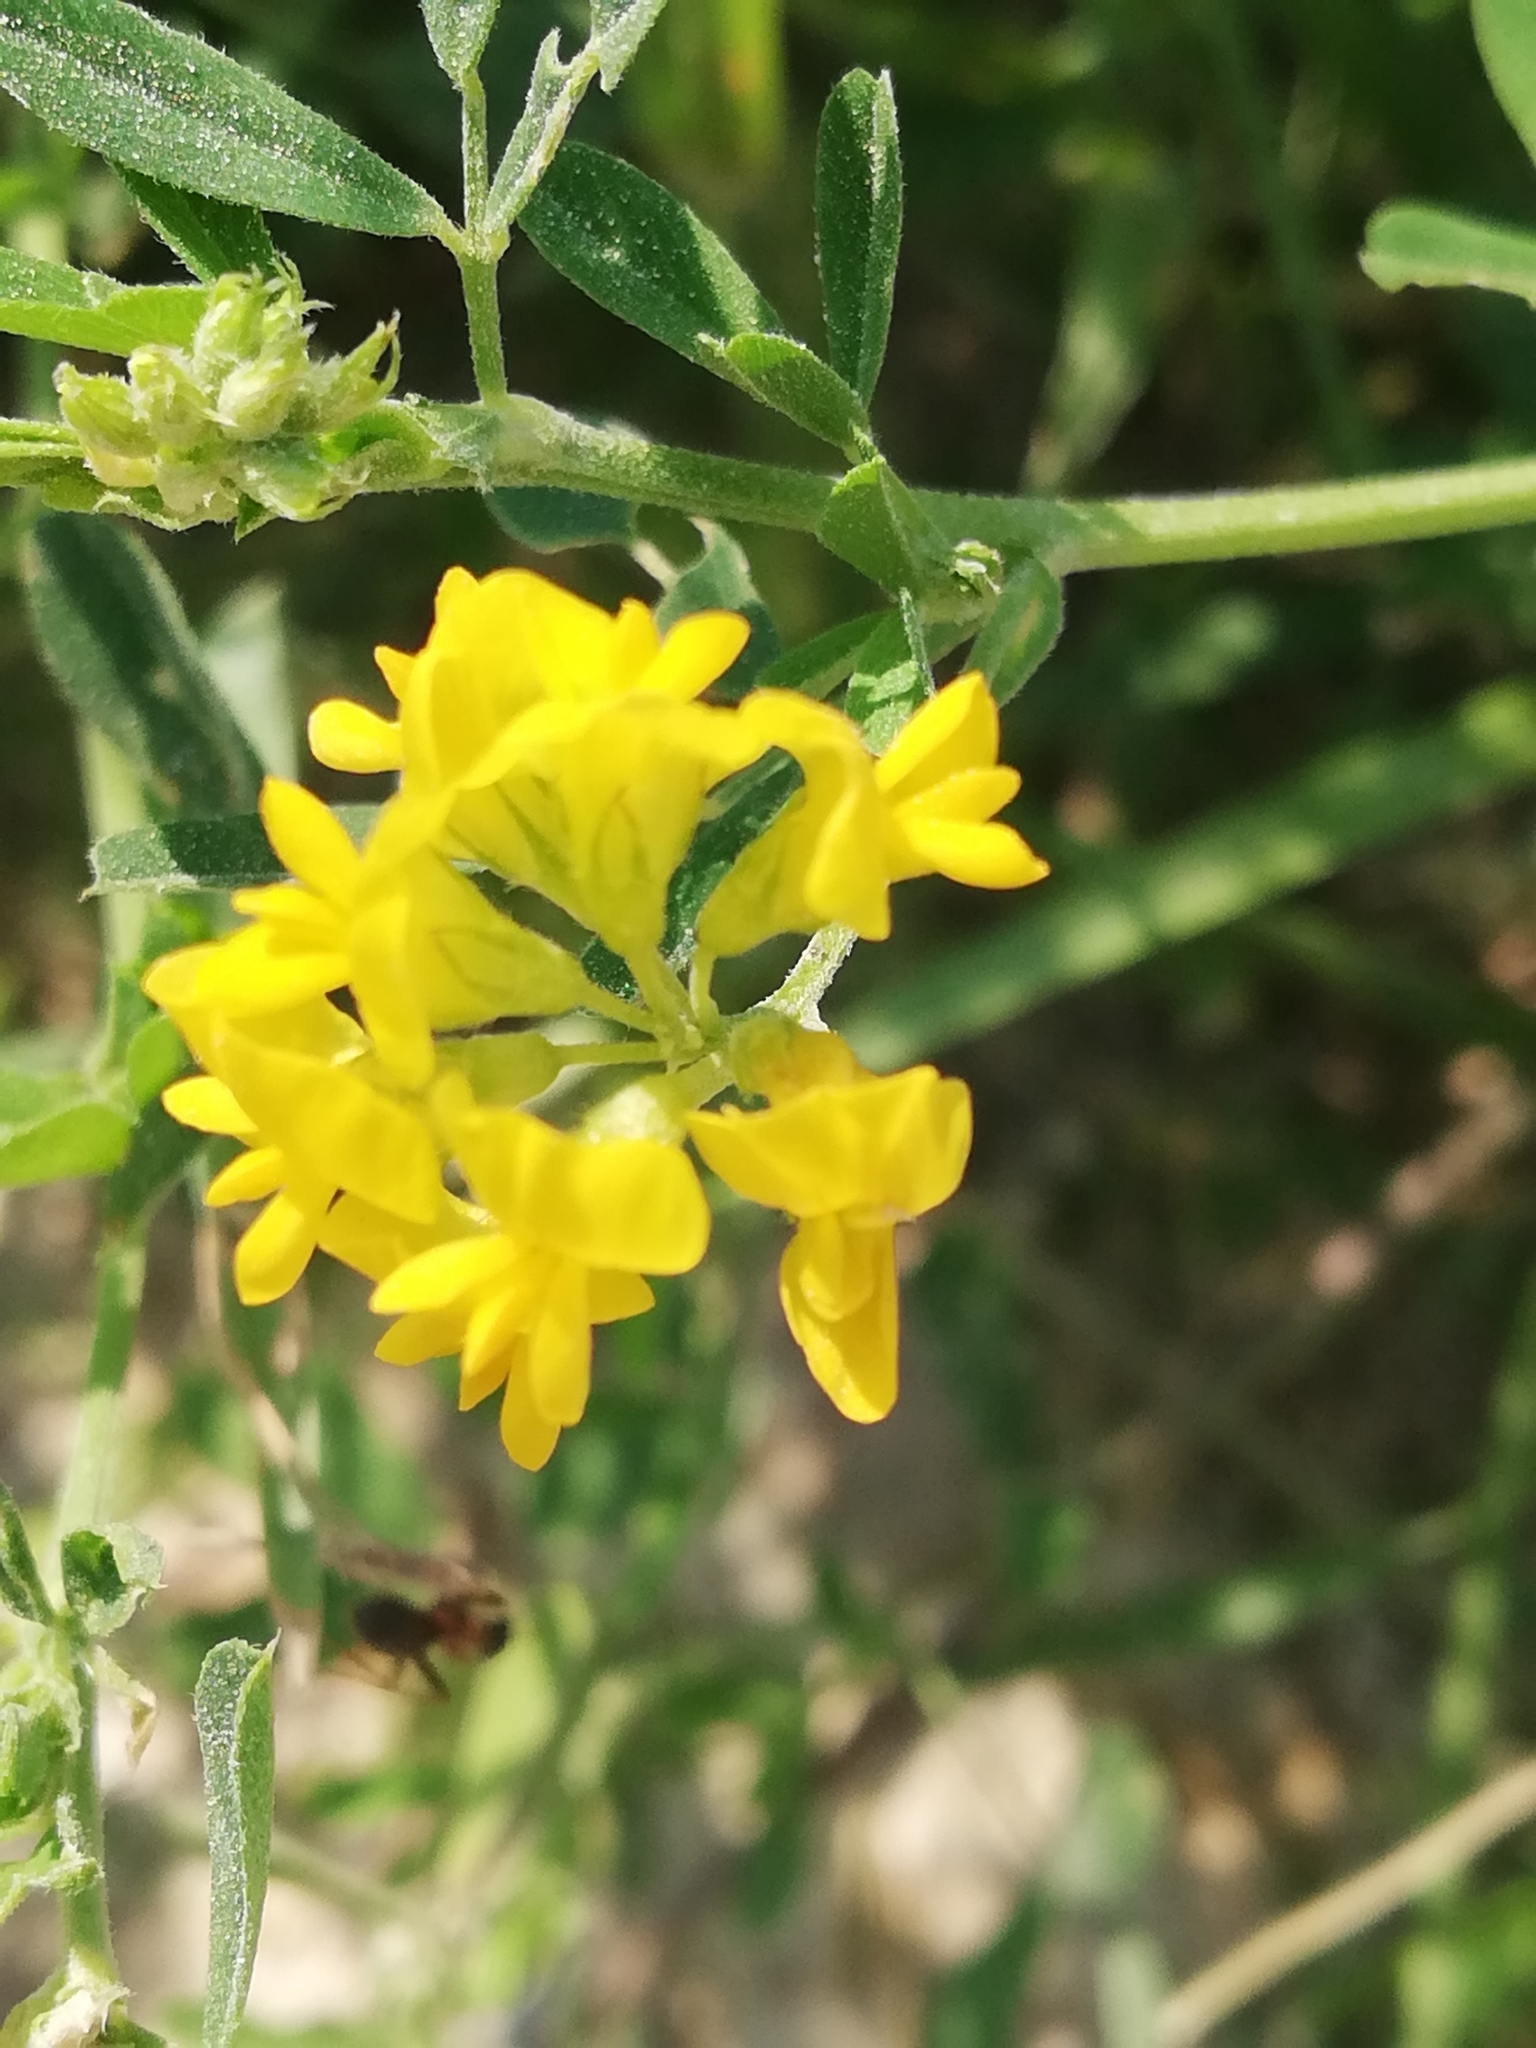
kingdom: Plantae
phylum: Tracheophyta
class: Magnoliopsida
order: Fabales
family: Fabaceae
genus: Medicago
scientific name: Medicago falcata
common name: Sickle medick
